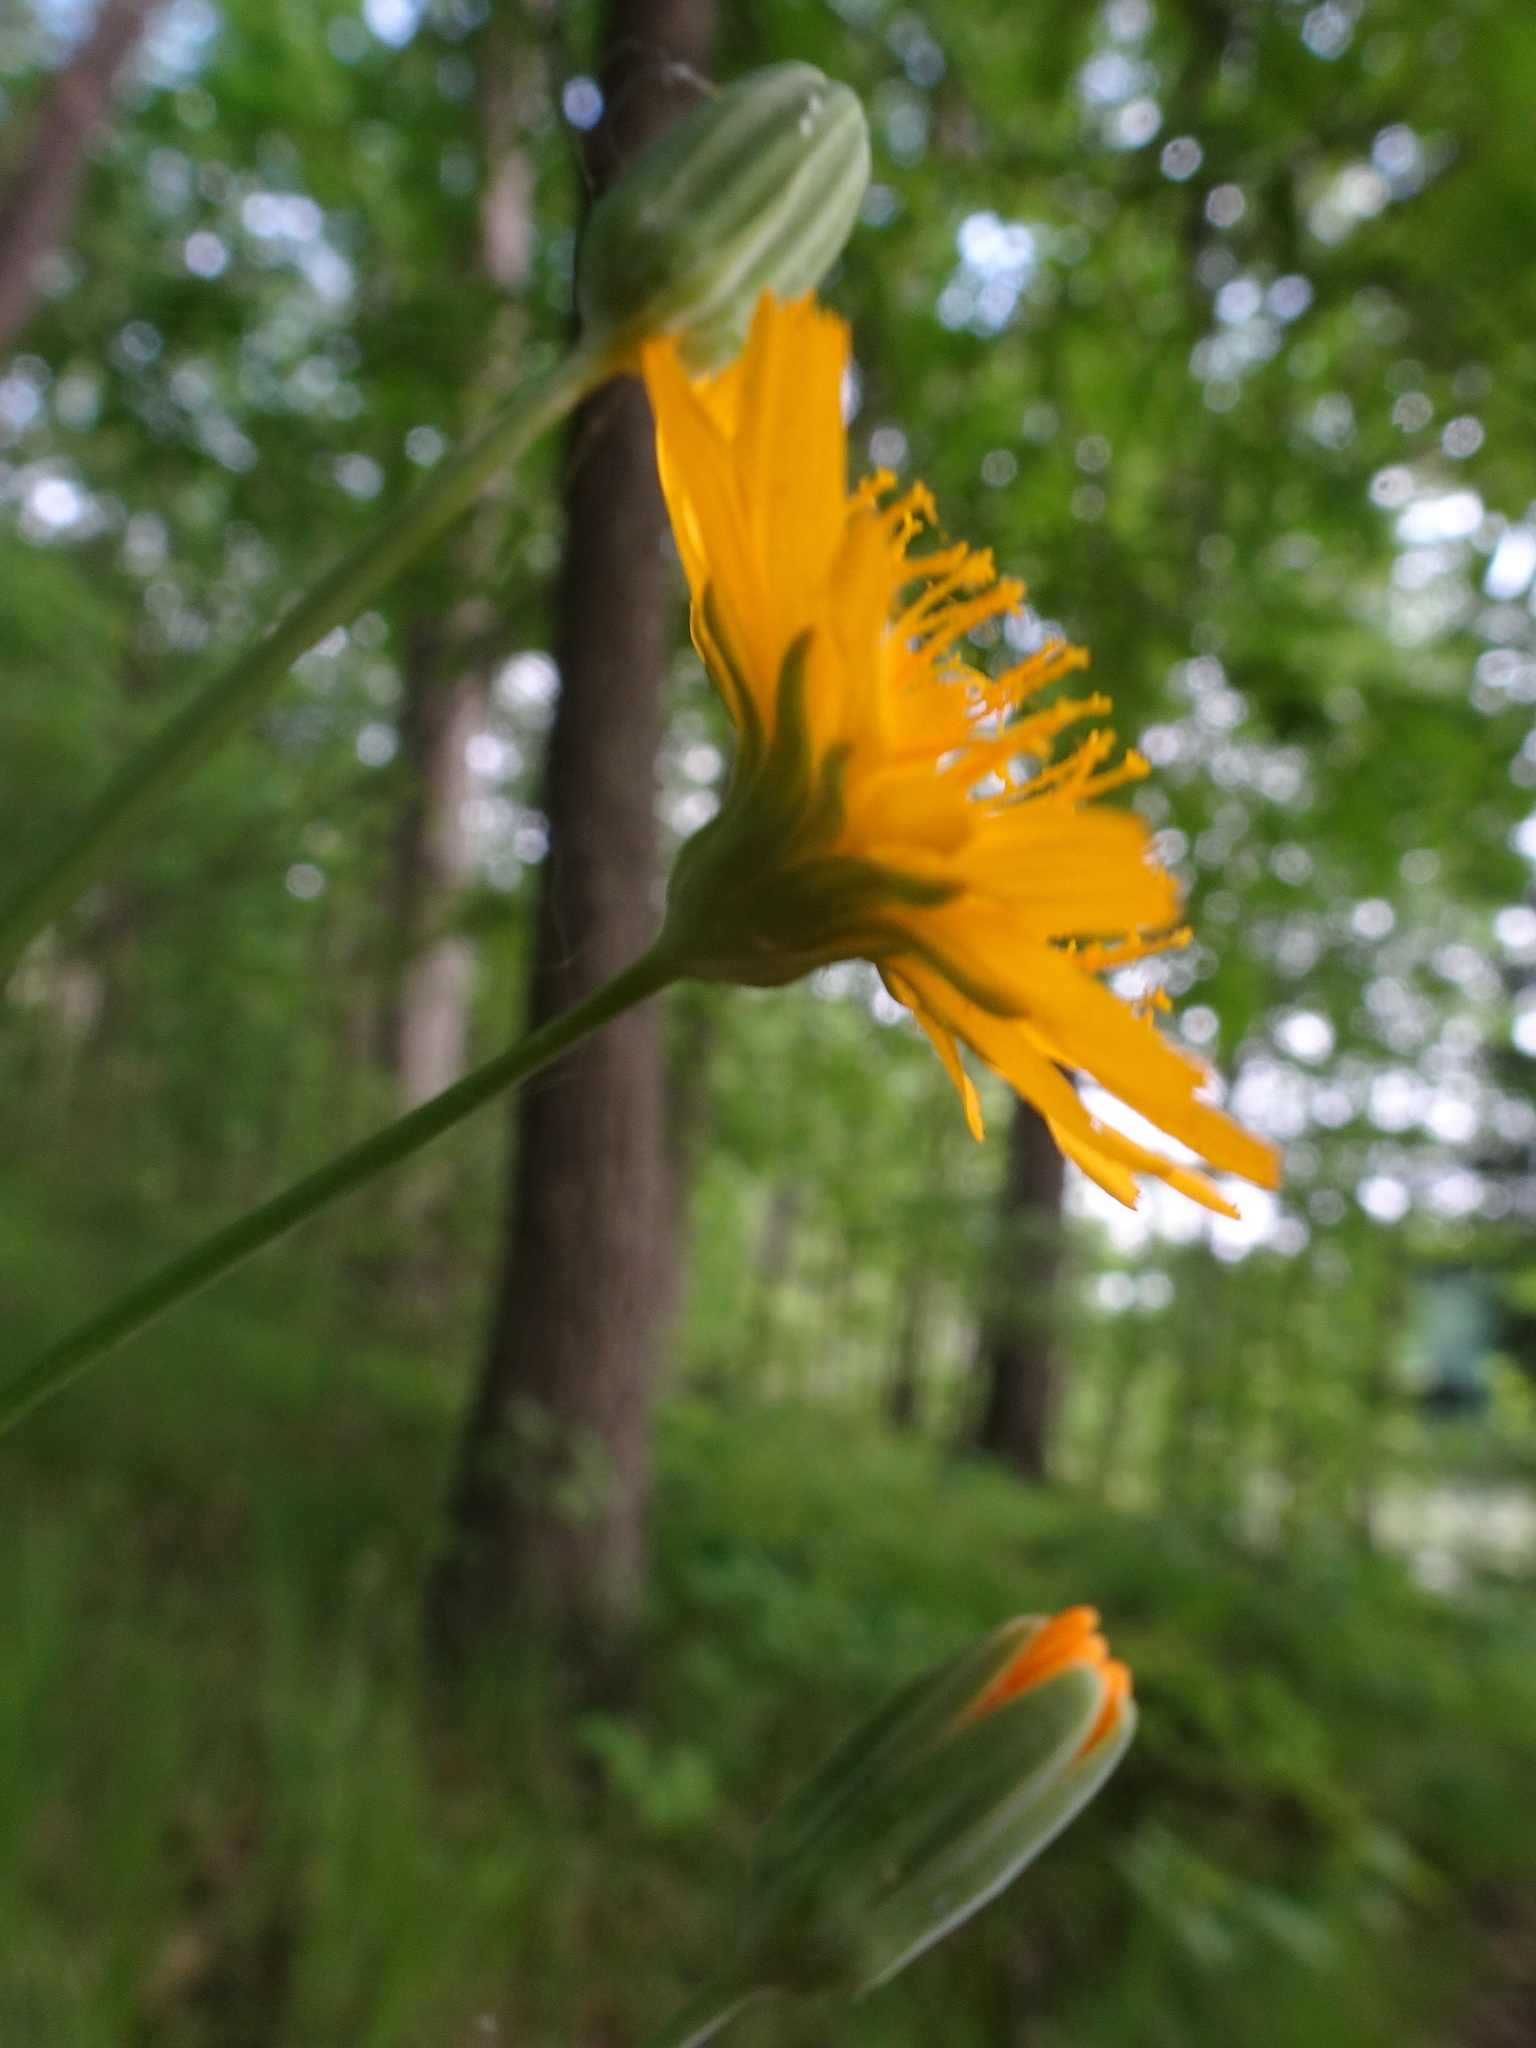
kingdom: Plantae
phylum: Tracheophyta
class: Magnoliopsida
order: Asterales
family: Asteraceae
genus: Krigia
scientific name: Krigia biflora
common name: Orange dwarf-dandelion
